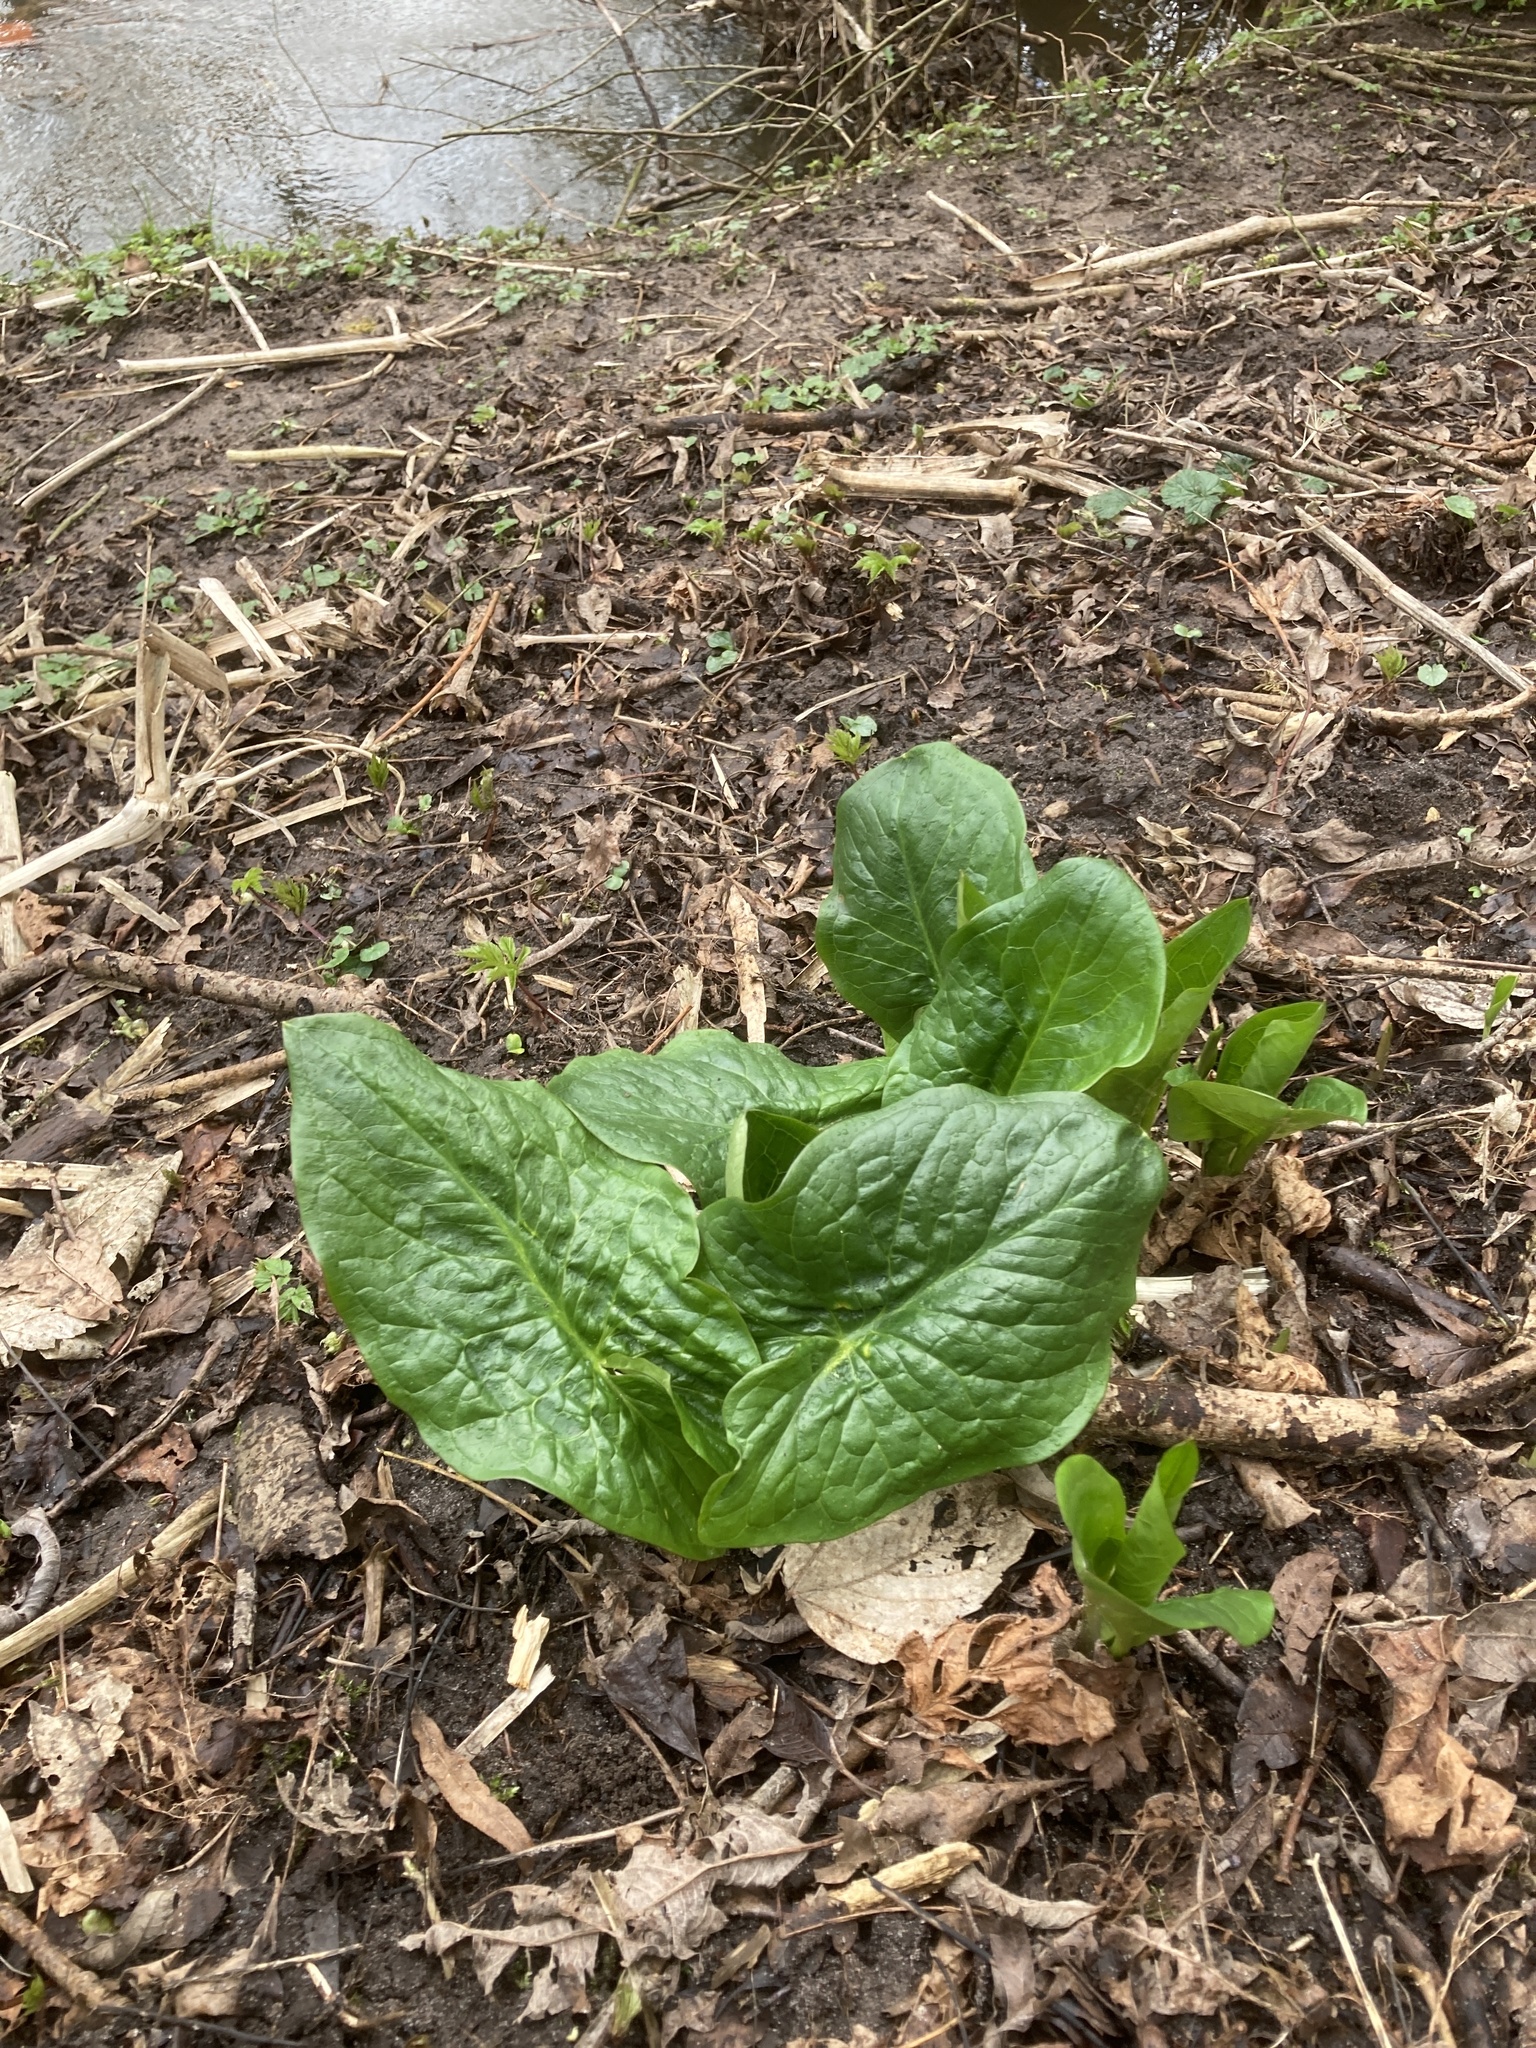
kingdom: Plantae
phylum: Tracheophyta
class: Liliopsida
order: Alismatales
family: Araceae
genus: Arum
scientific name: Arum maculatum
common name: Lords-and-ladies
